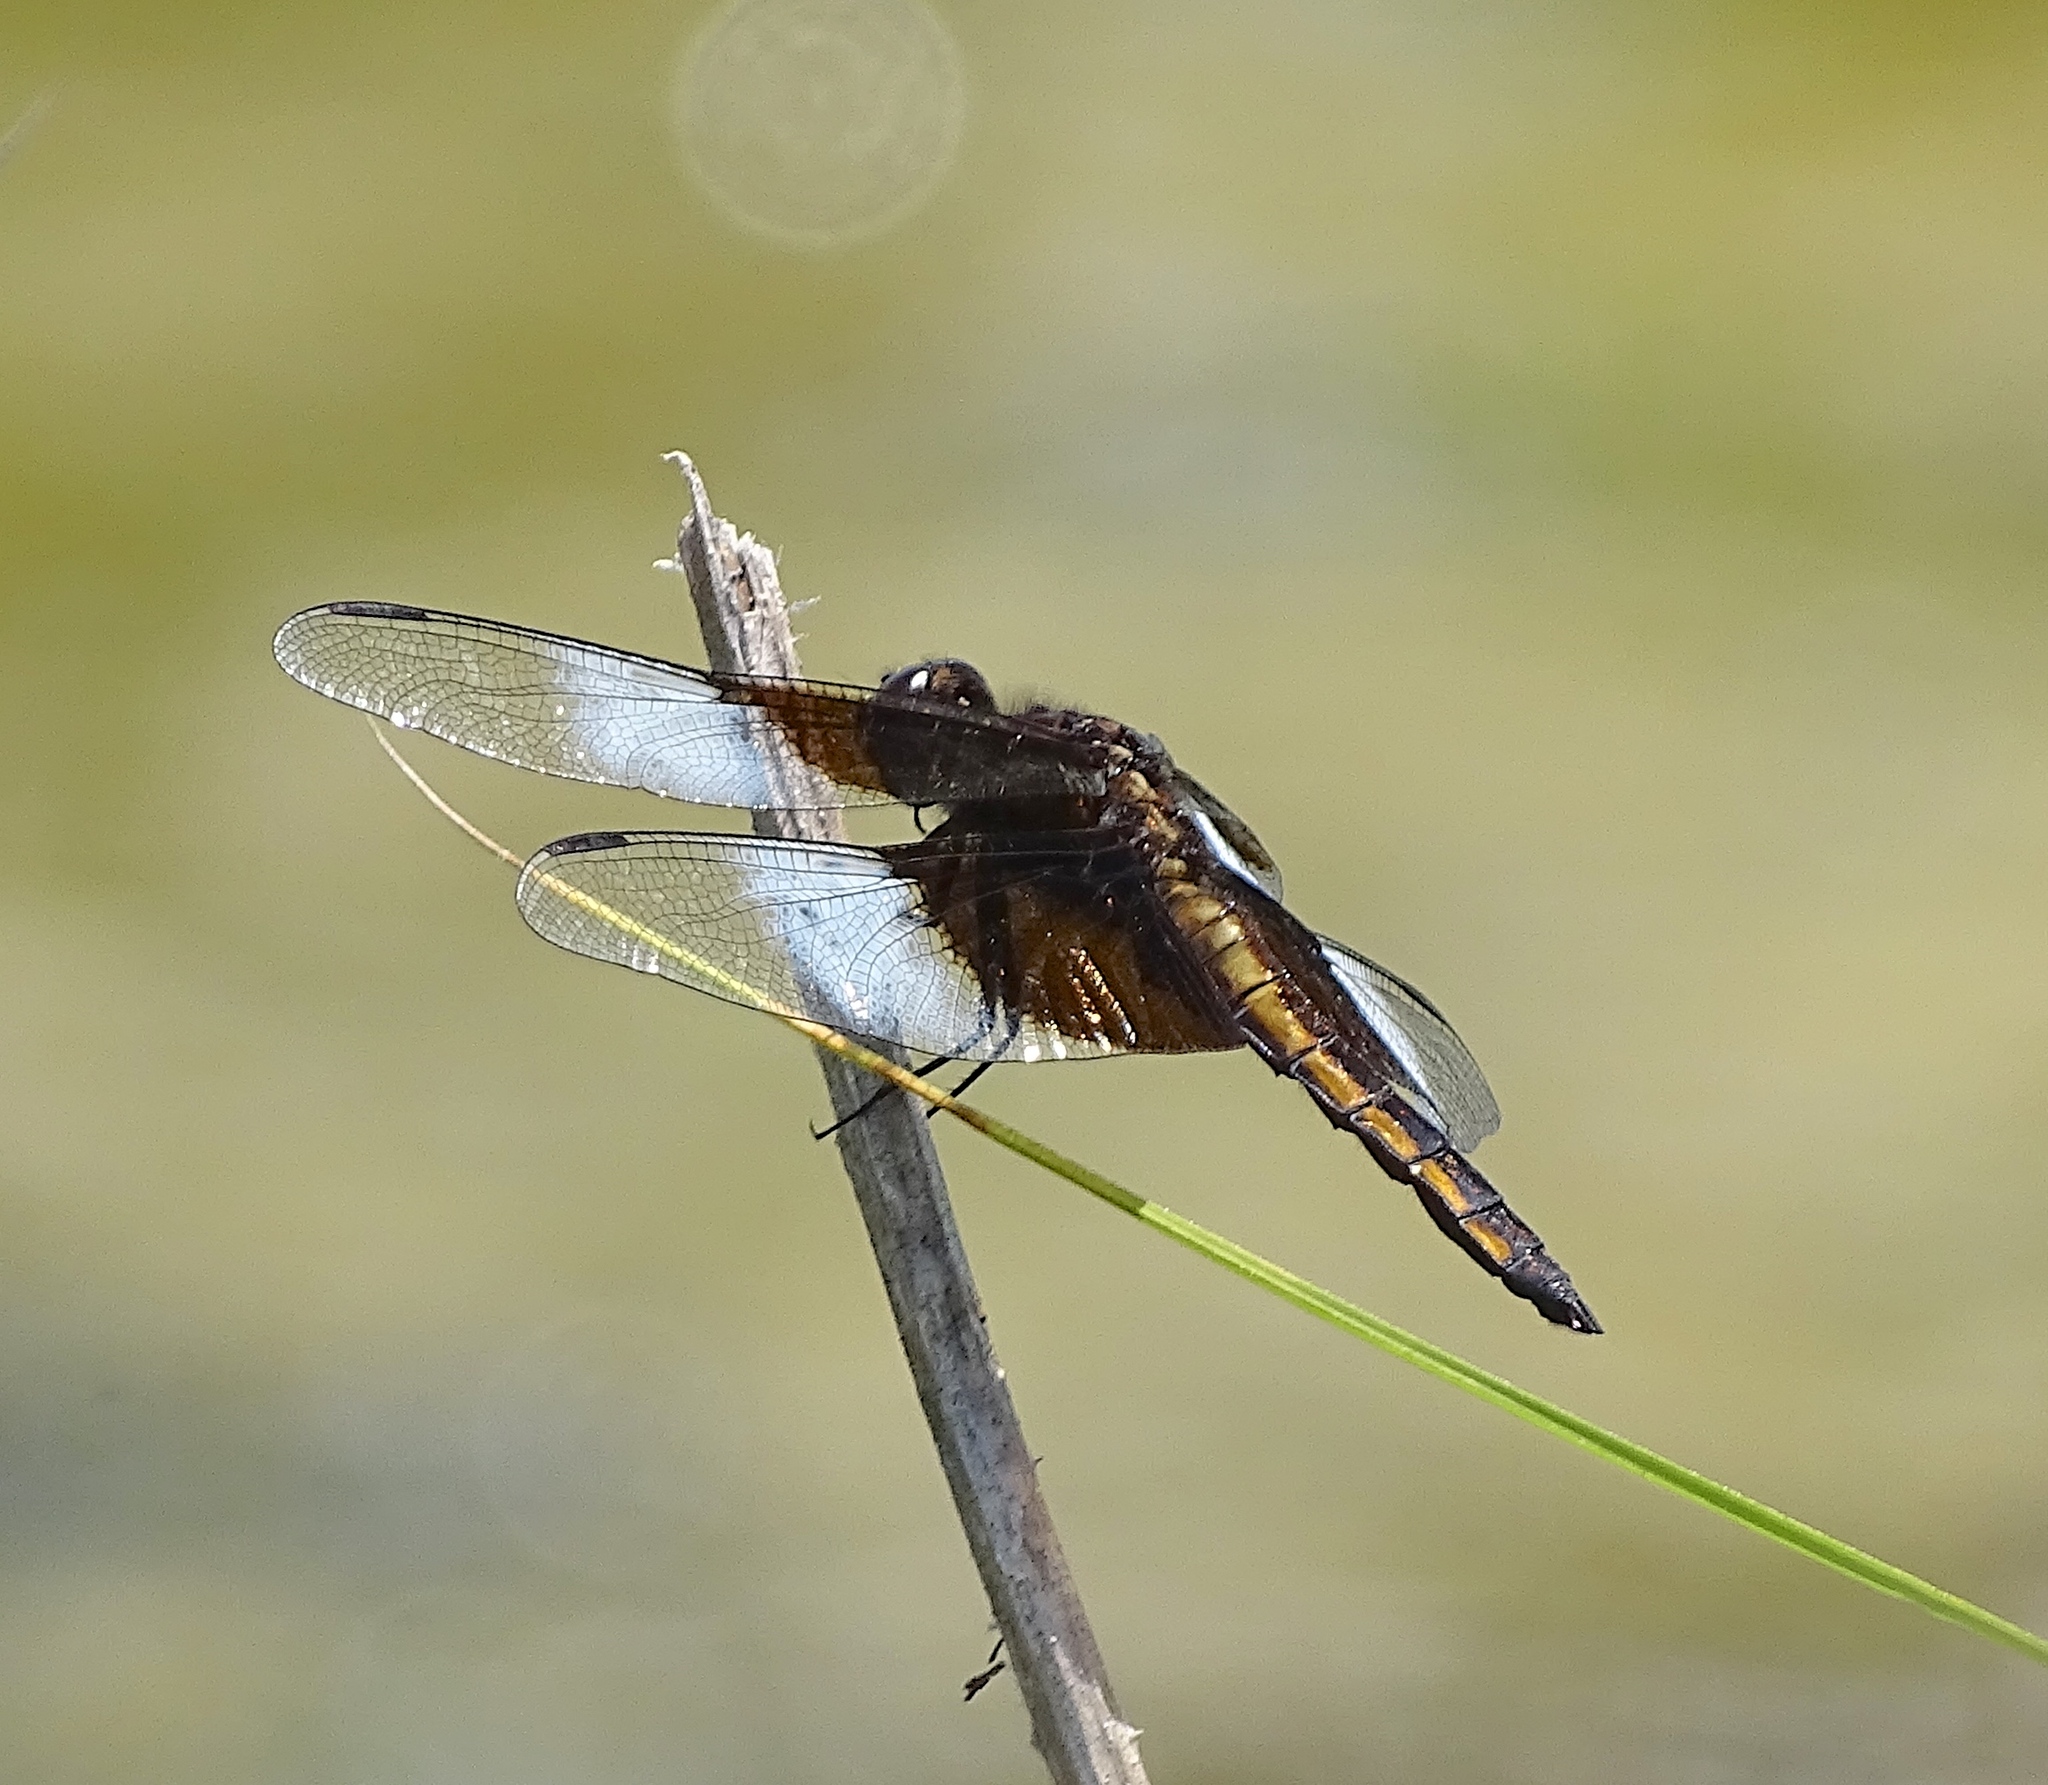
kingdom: Animalia
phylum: Arthropoda
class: Insecta
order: Odonata
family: Libellulidae
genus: Libellula
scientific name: Libellula luctuosa
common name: Widow skimmer
